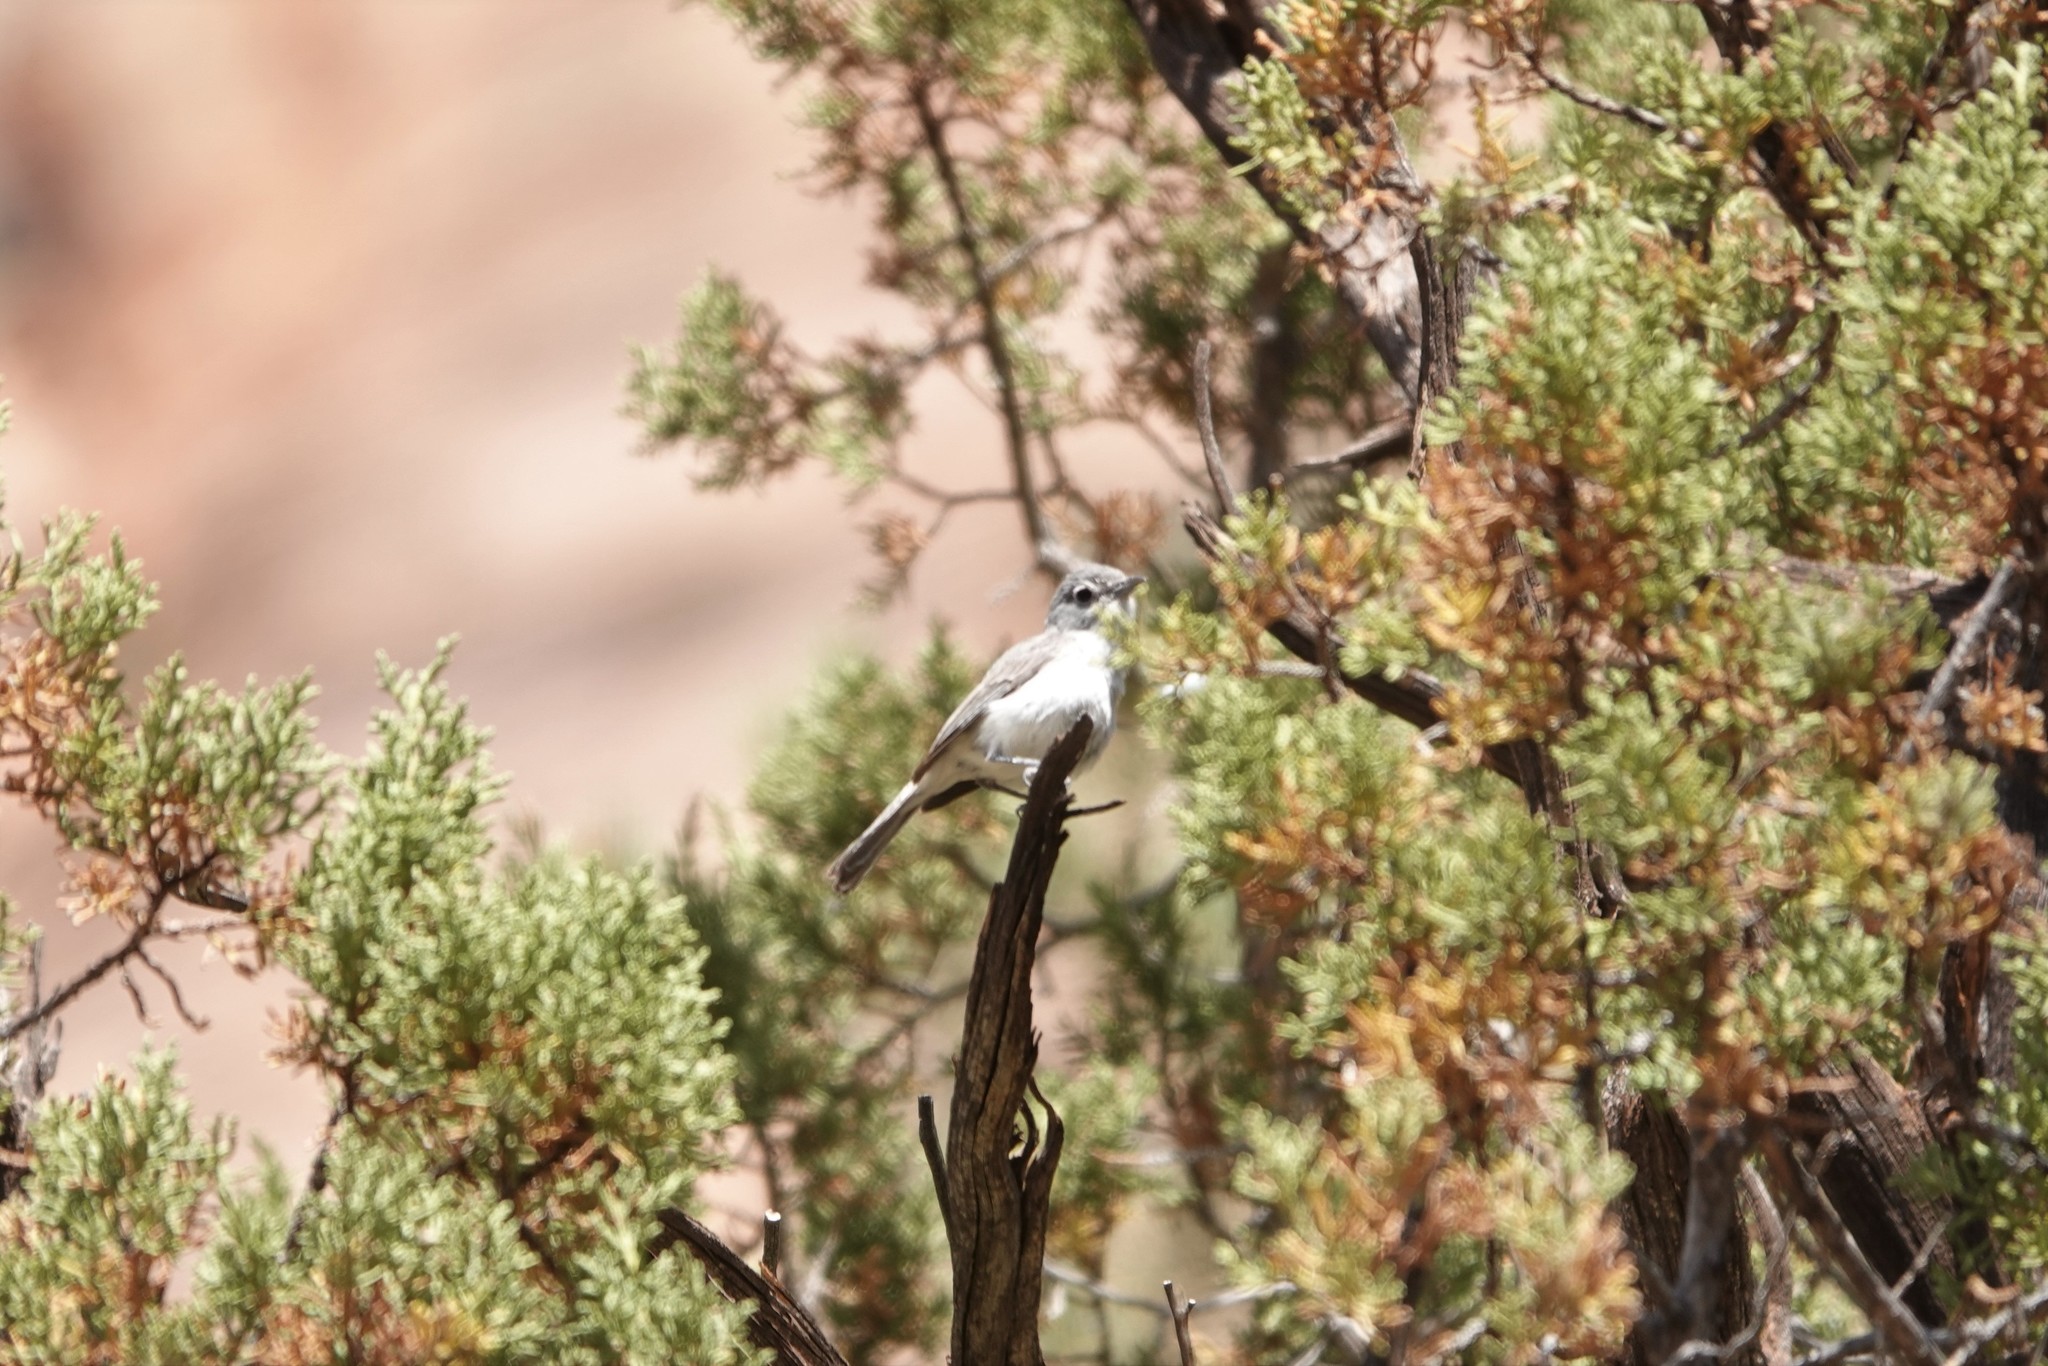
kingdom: Animalia
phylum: Chordata
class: Aves
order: Passeriformes
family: Vireonidae
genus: Vireo
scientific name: Vireo vicinior
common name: Gray vireo
